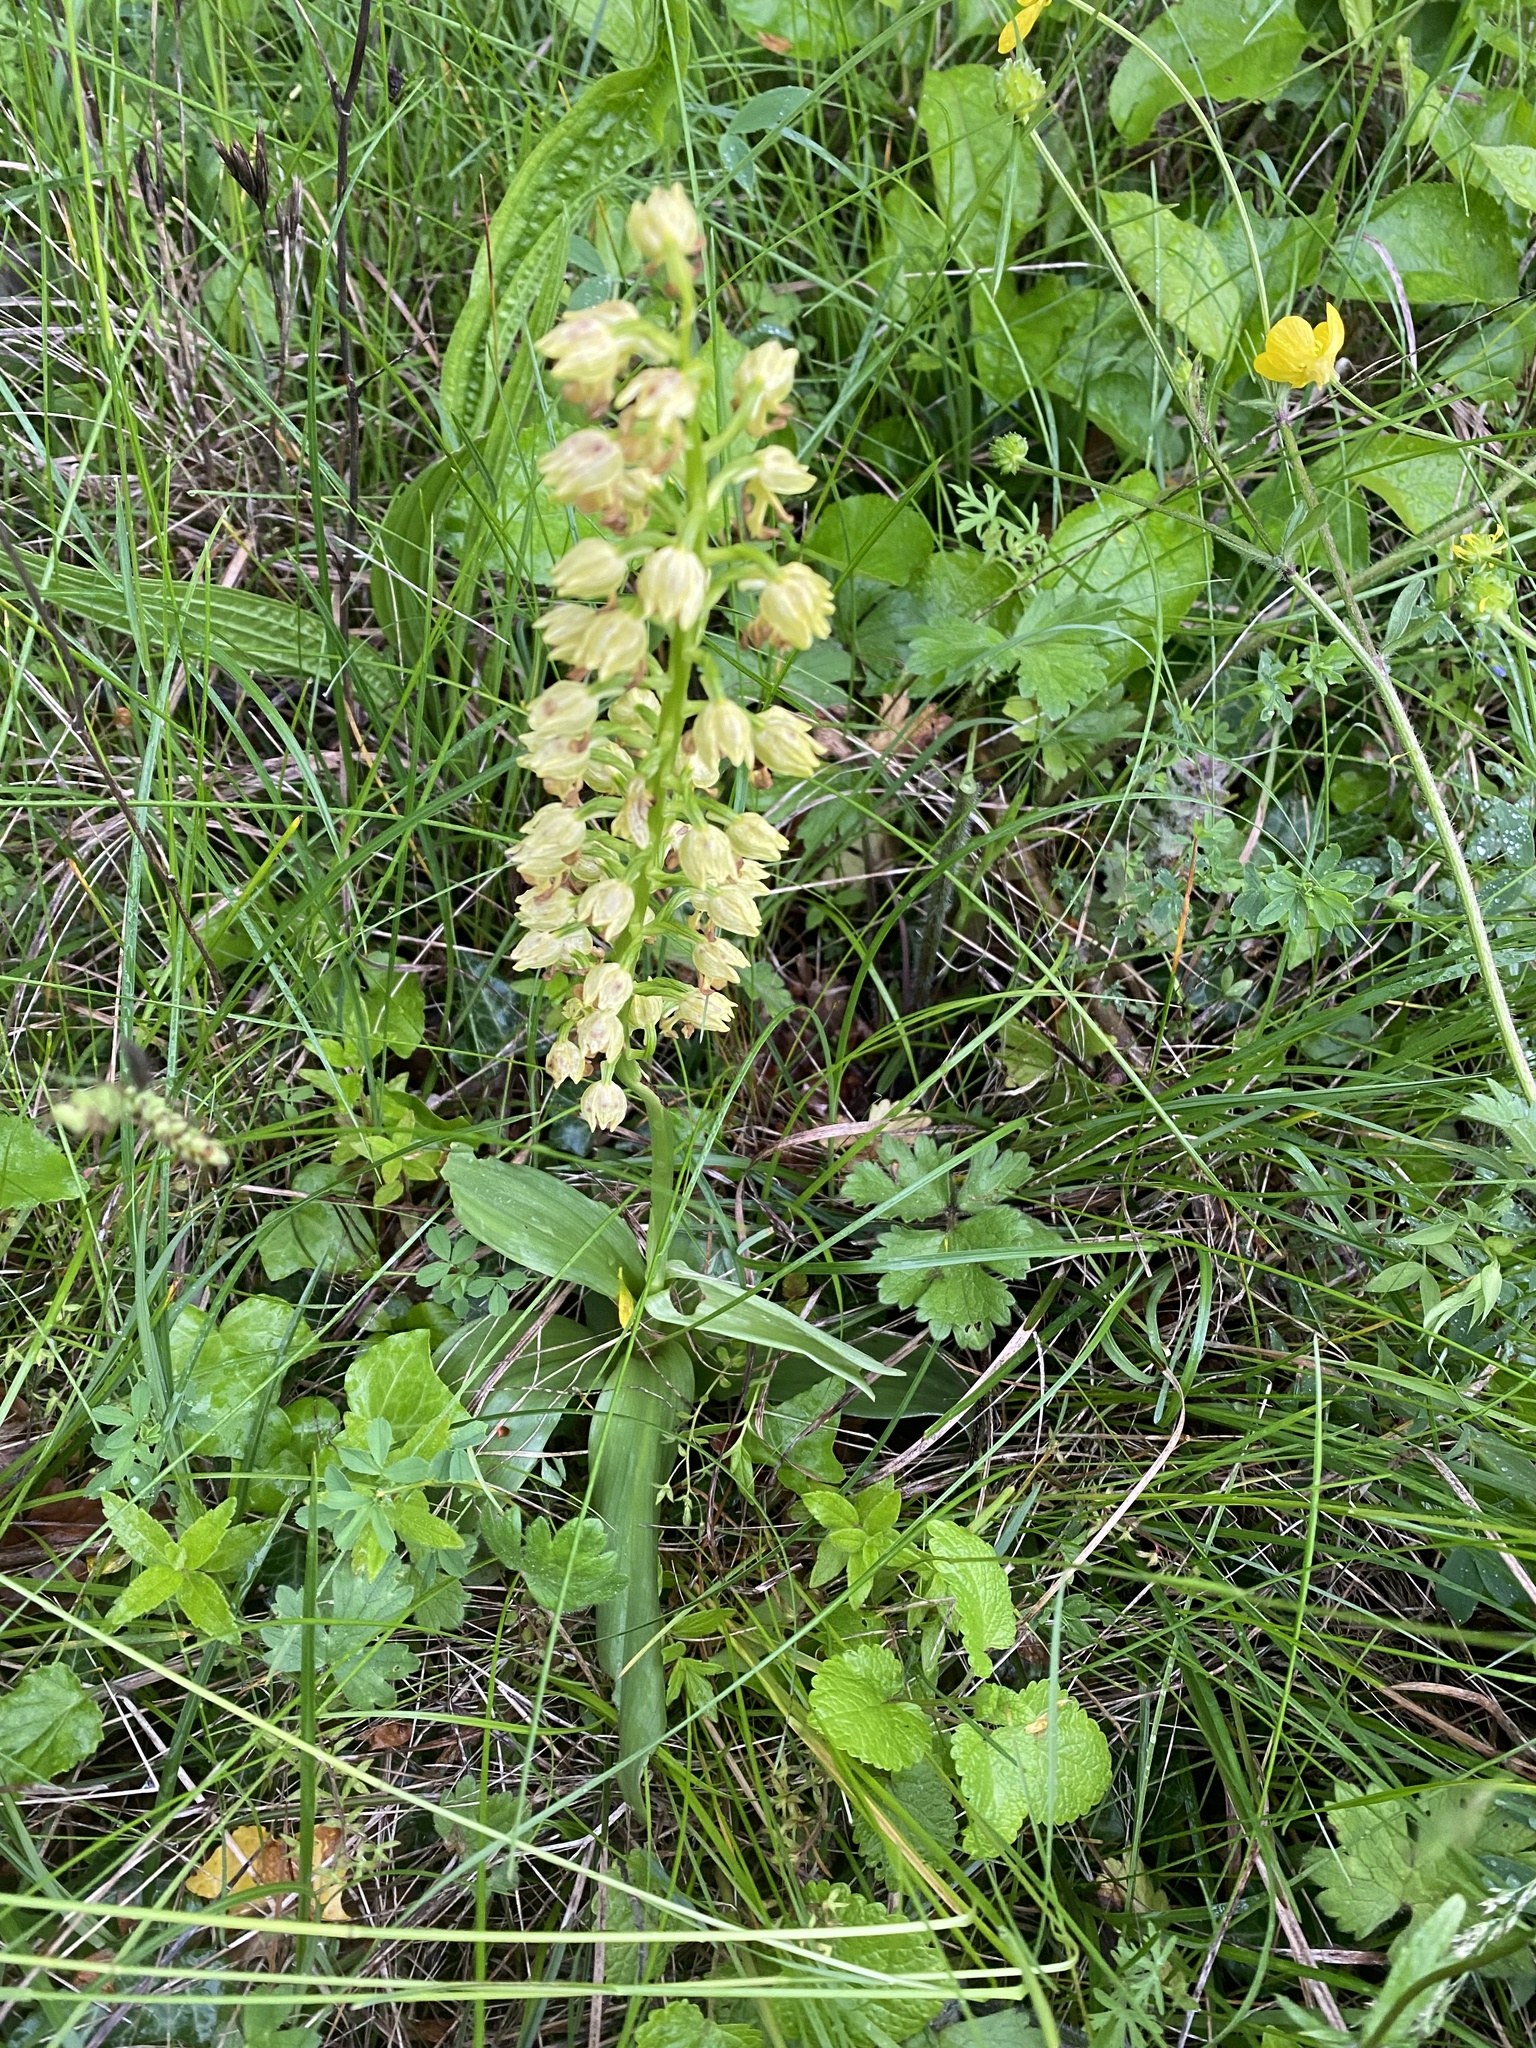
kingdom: Plantae
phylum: Tracheophyta
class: Liliopsida
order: Asparagales
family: Orchidaceae
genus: Orchis
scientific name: Orchis punctulata
